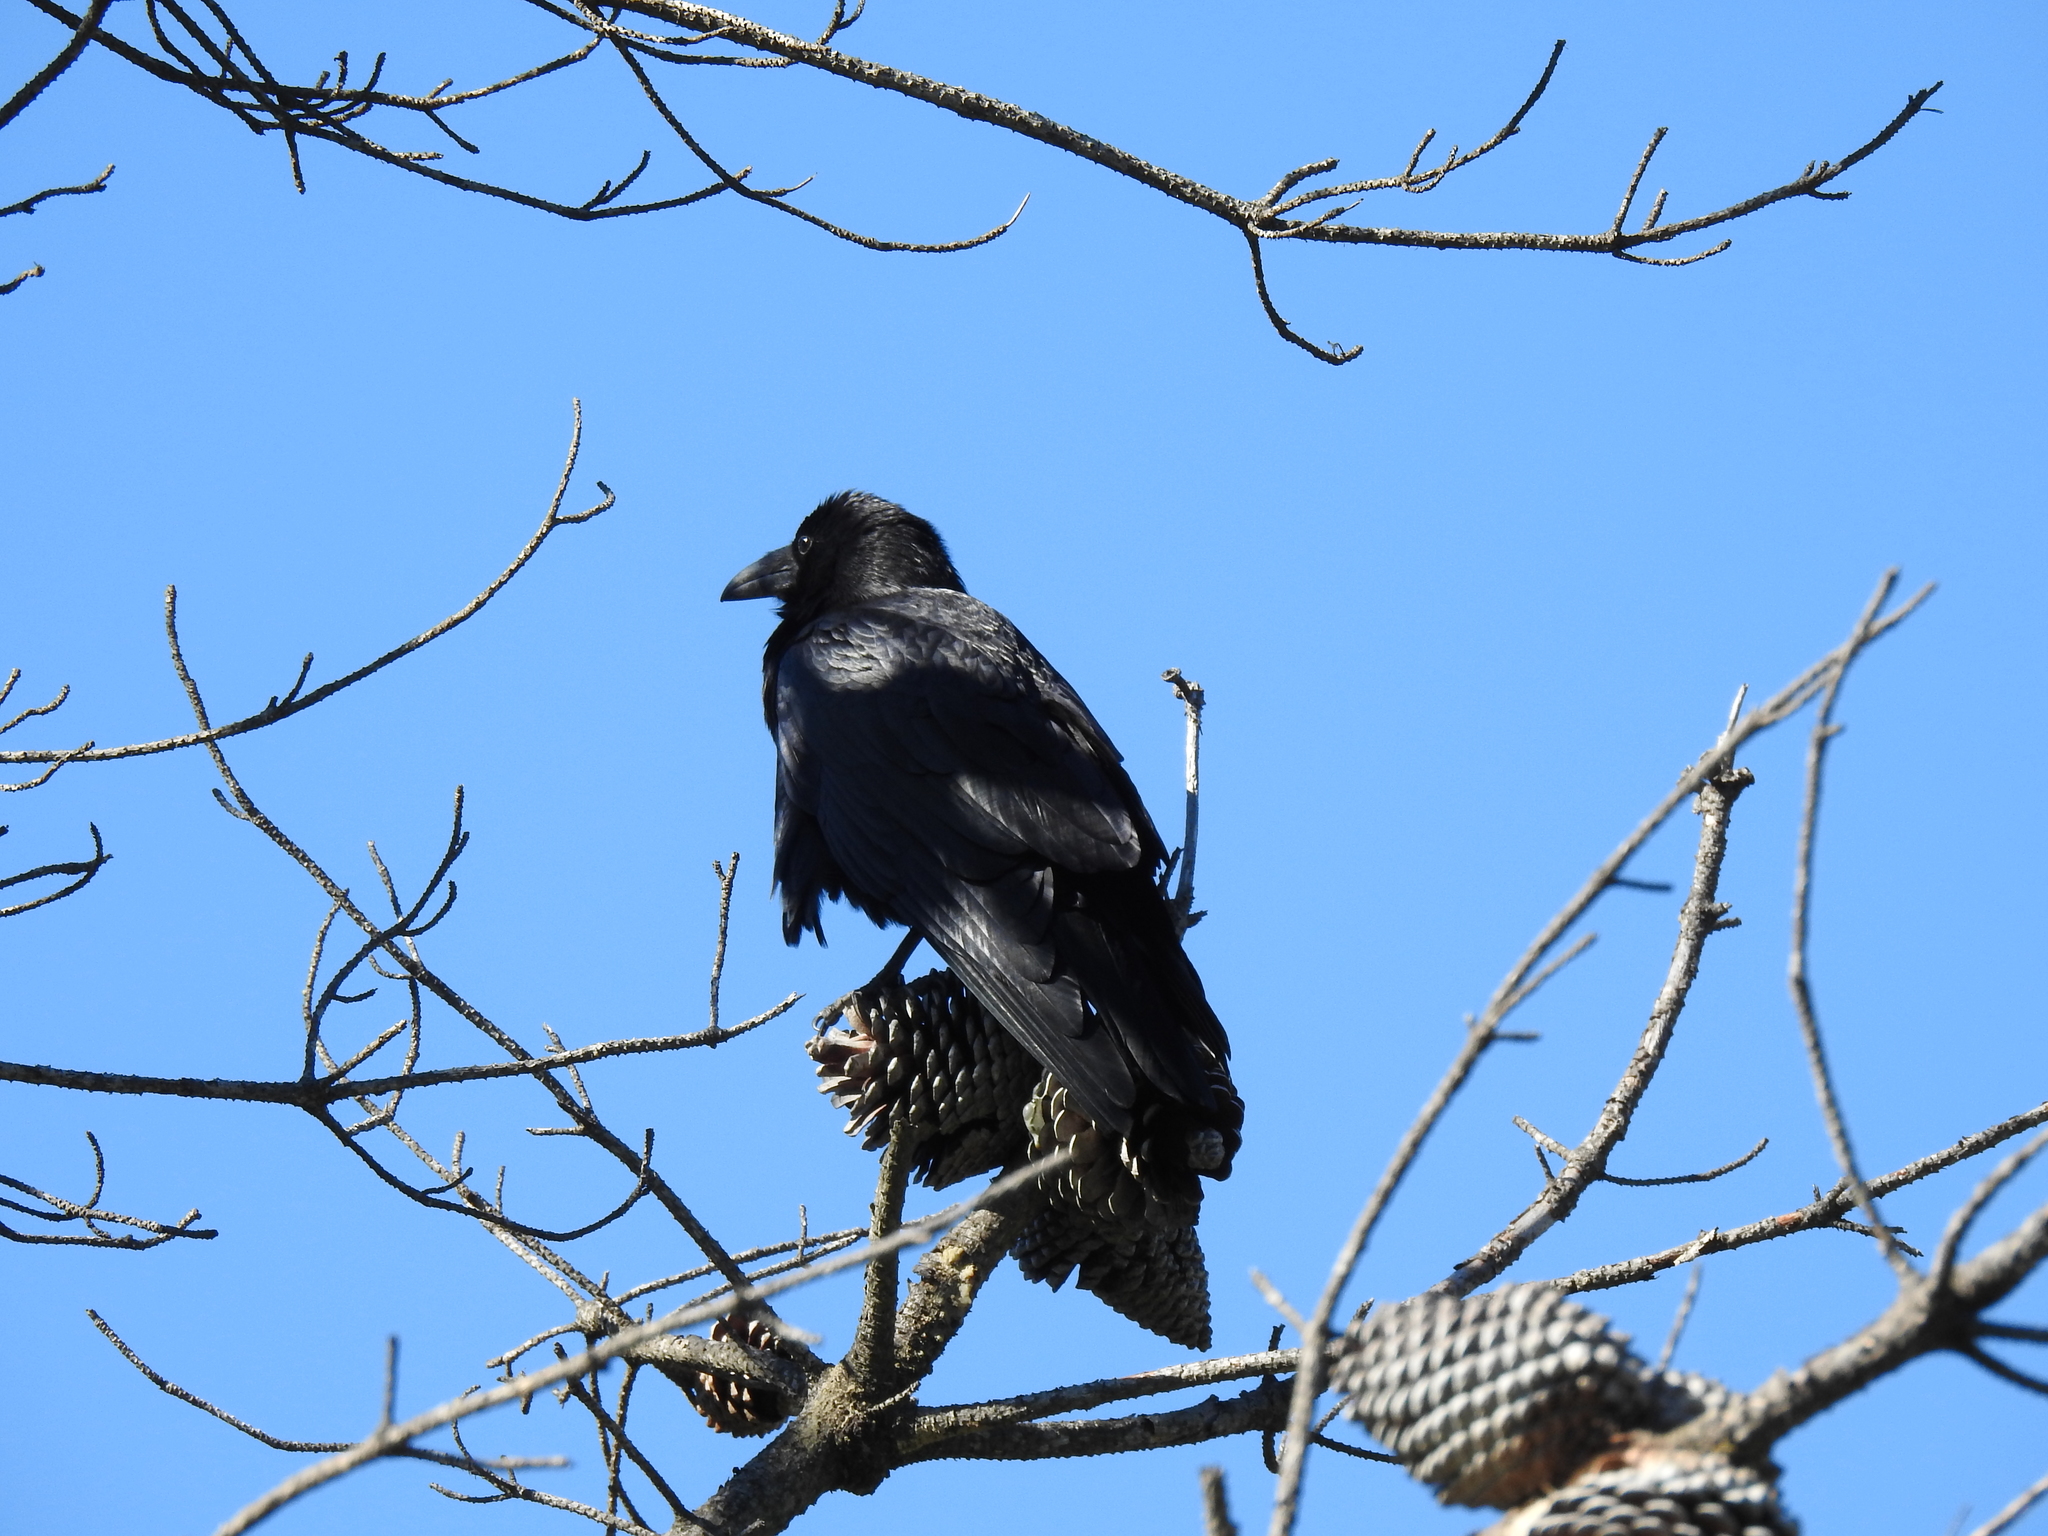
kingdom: Animalia
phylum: Chordata
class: Aves
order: Passeriformes
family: Corvidae
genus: Corvus
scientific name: Corvus corax
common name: Common raven
